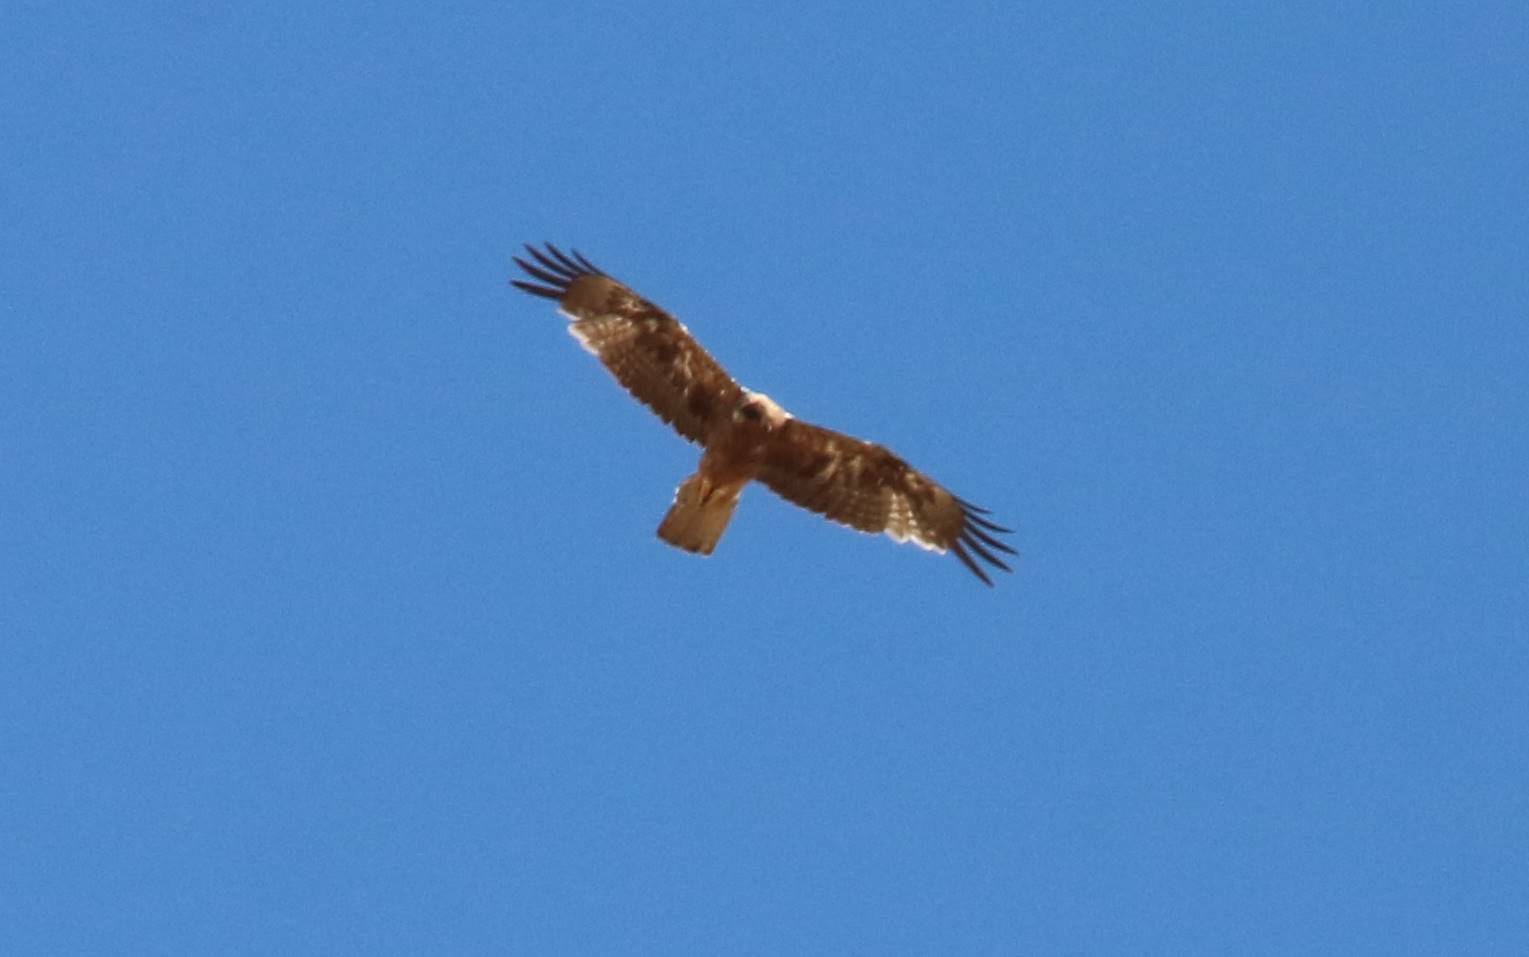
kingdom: Animalia
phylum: Chordata
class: Aves
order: Accipitriformes
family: Accipitridae
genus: Hieraaetus
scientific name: Hieraaetus pennatus
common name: Booted eagle
